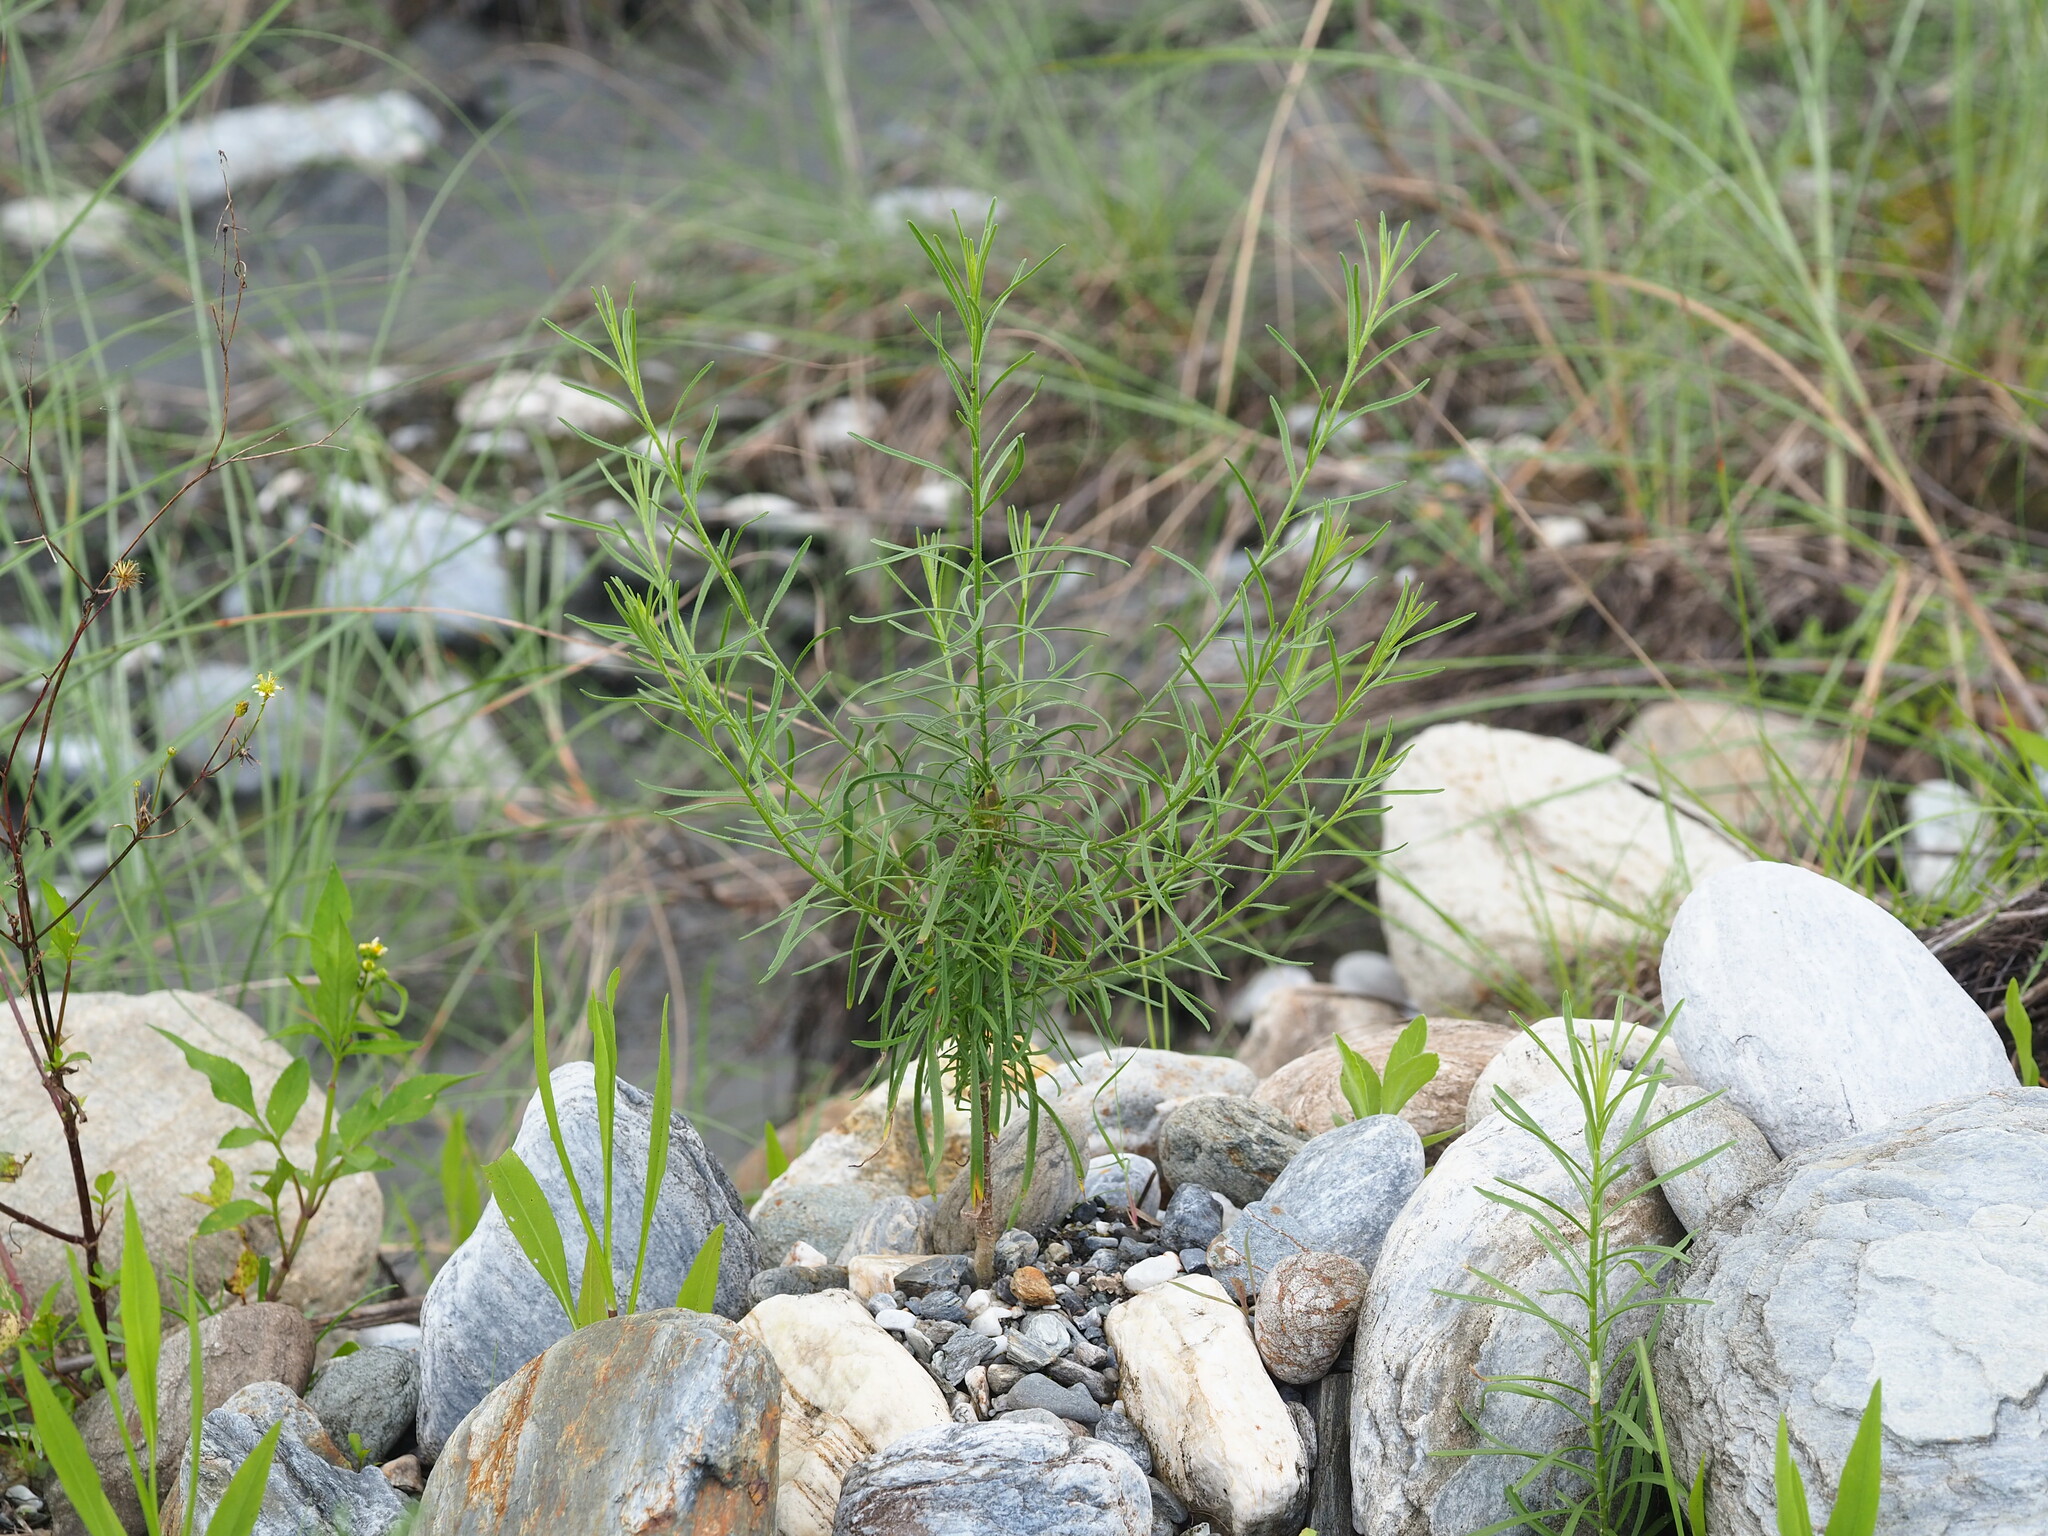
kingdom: Plantae
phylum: Tracheophyta
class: Magnoliopsida
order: Asterales
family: Asteraceae
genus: Heteropappus
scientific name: Heteropappus altaicus
